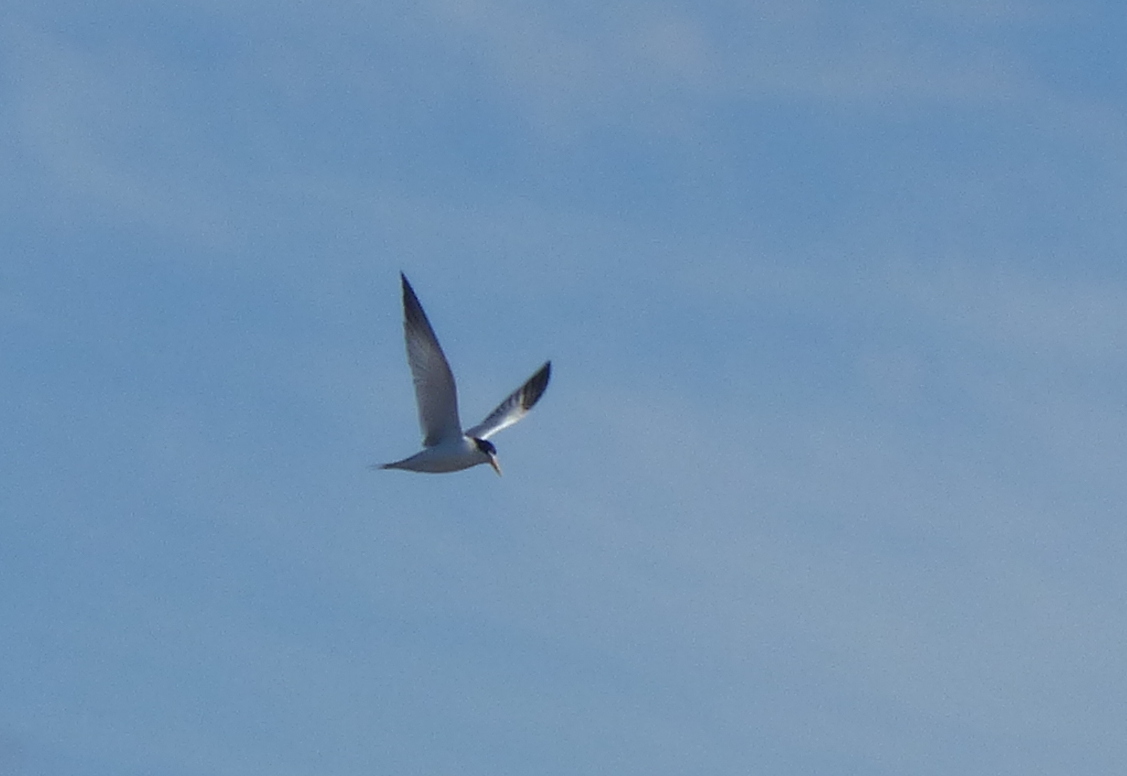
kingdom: Animalia
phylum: Chordata
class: Aves
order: Charadriiformes
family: Laridae
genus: Sternula
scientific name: Sternula superciliaris
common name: Yellow-billed tern
